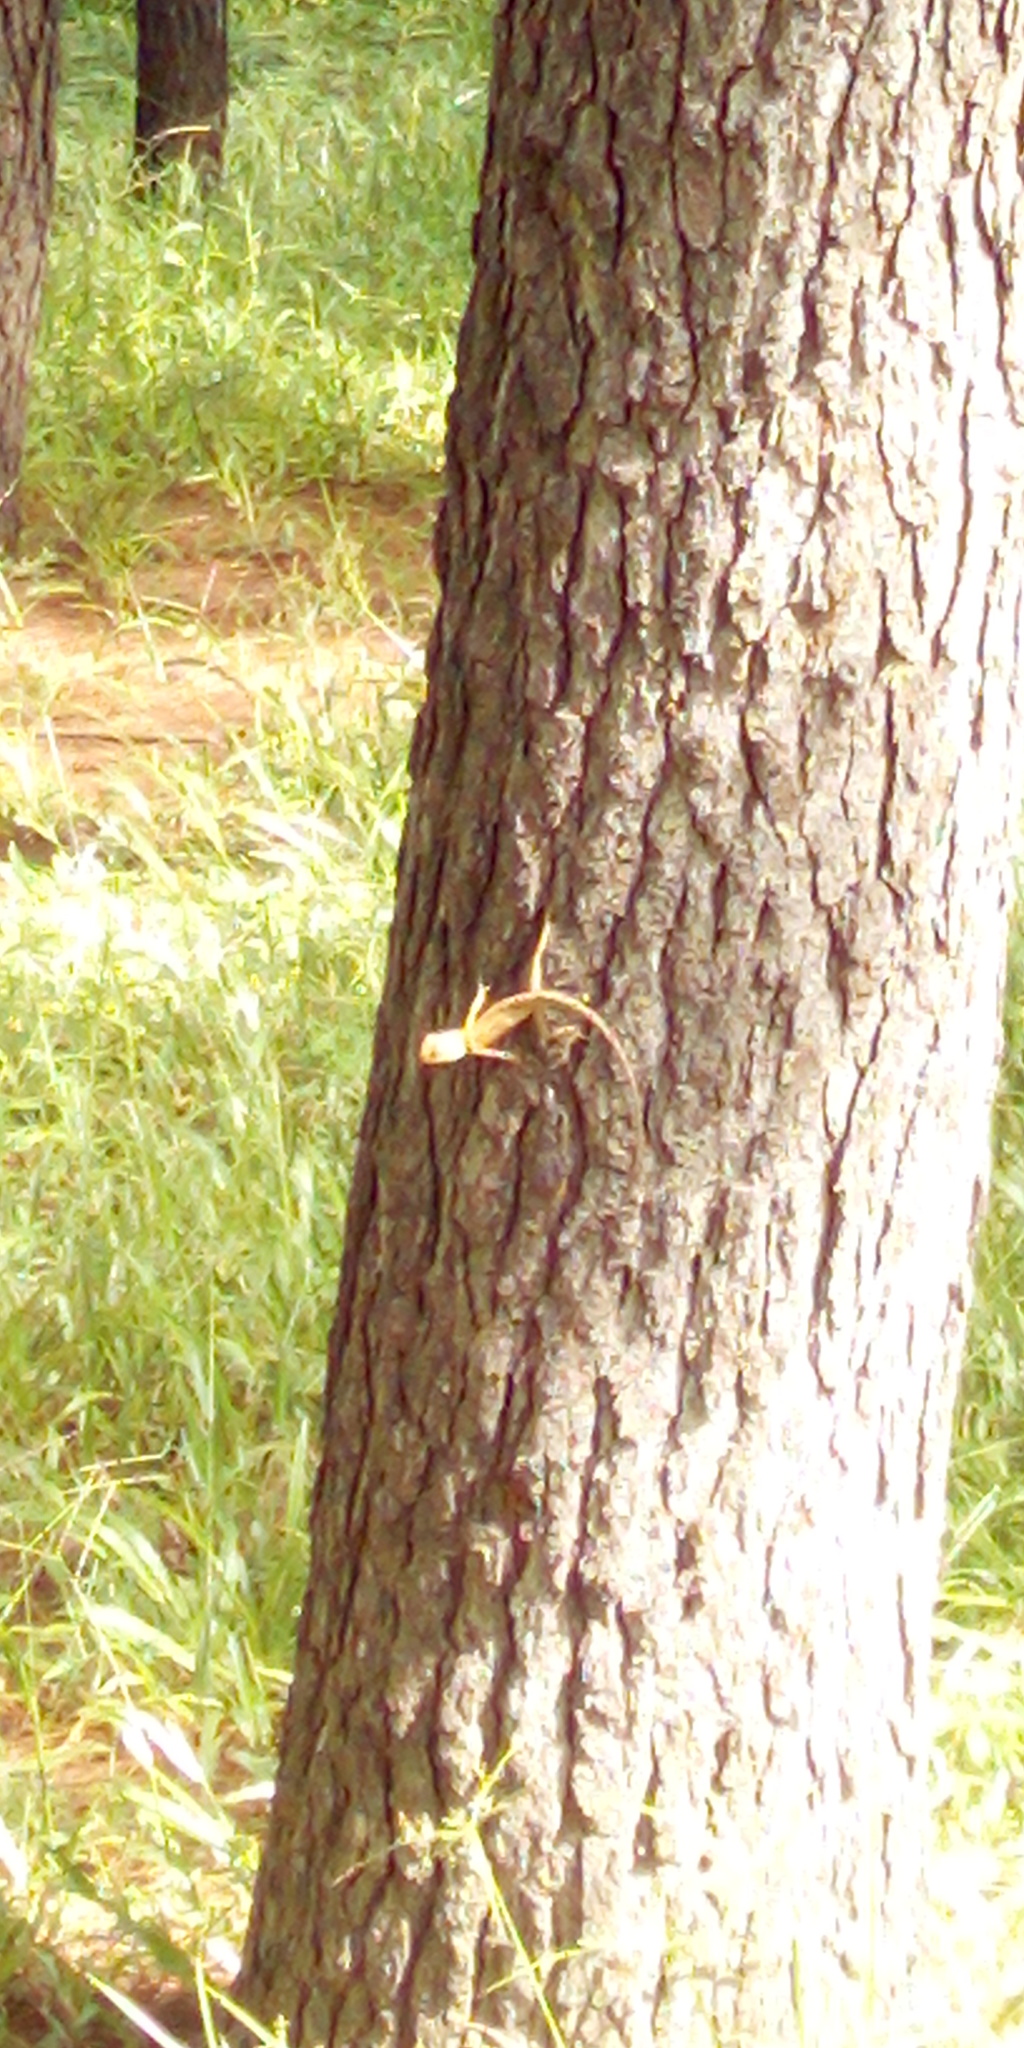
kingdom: Animalia
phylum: Chordata
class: Squamata
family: Agamidae
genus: Calotes
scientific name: Calotes versicolor
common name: Oriental garden lizard
